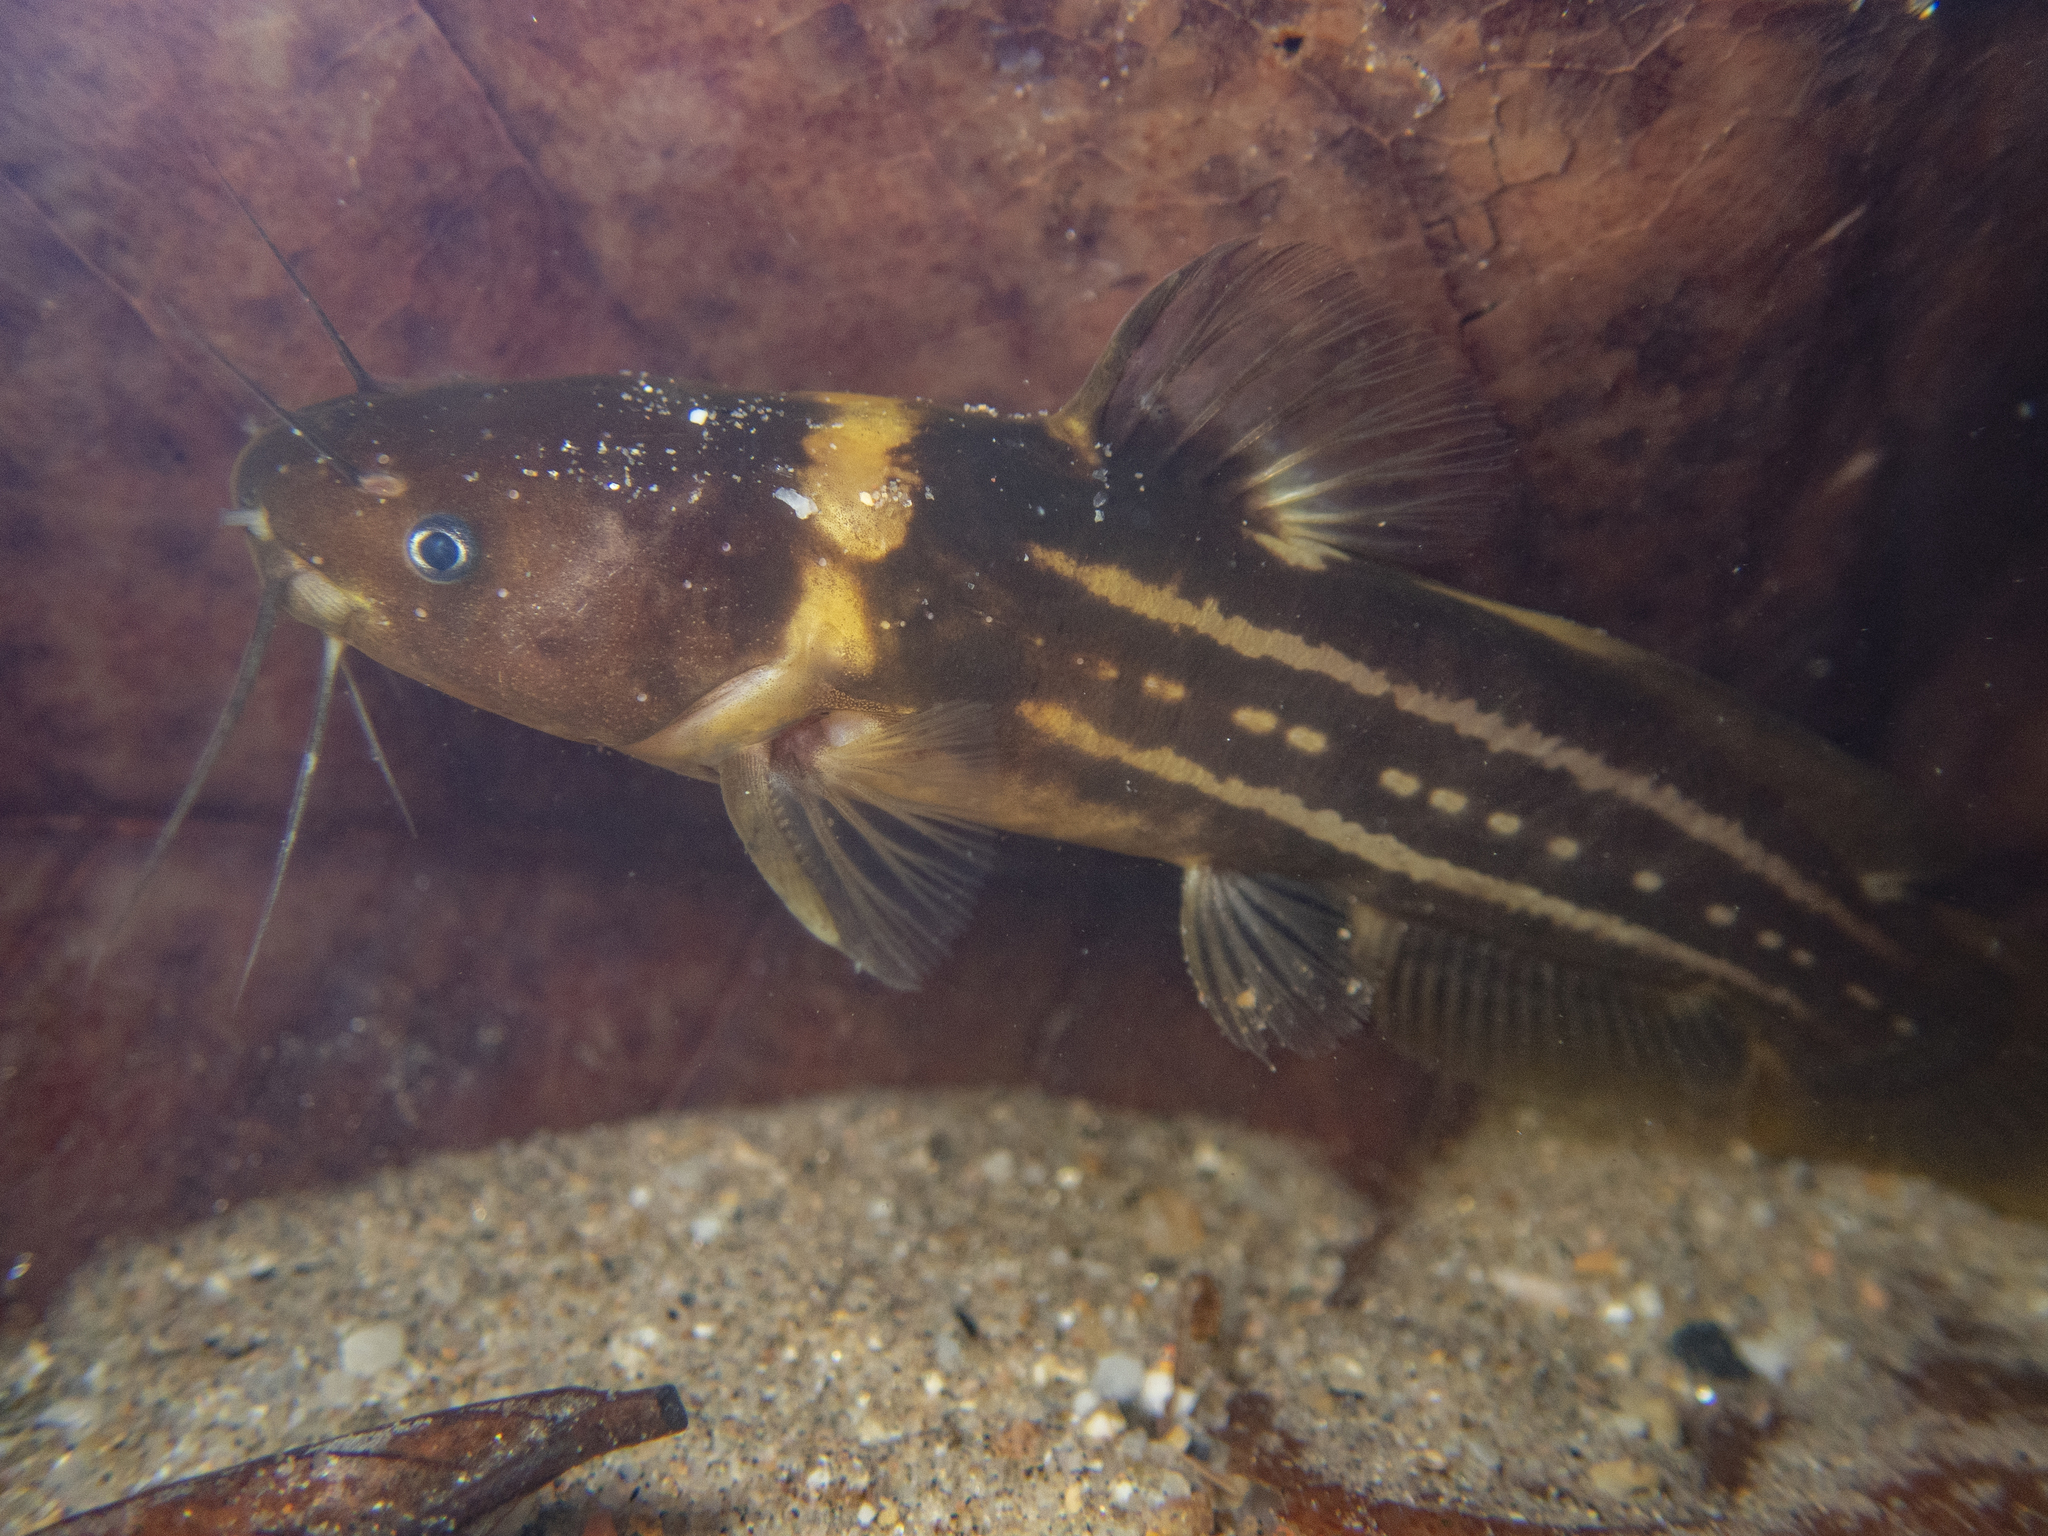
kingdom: Animalia
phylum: Chordata
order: Siluriformes
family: Bagridae
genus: Tachysurus
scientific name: Tachysurus trilineatus
